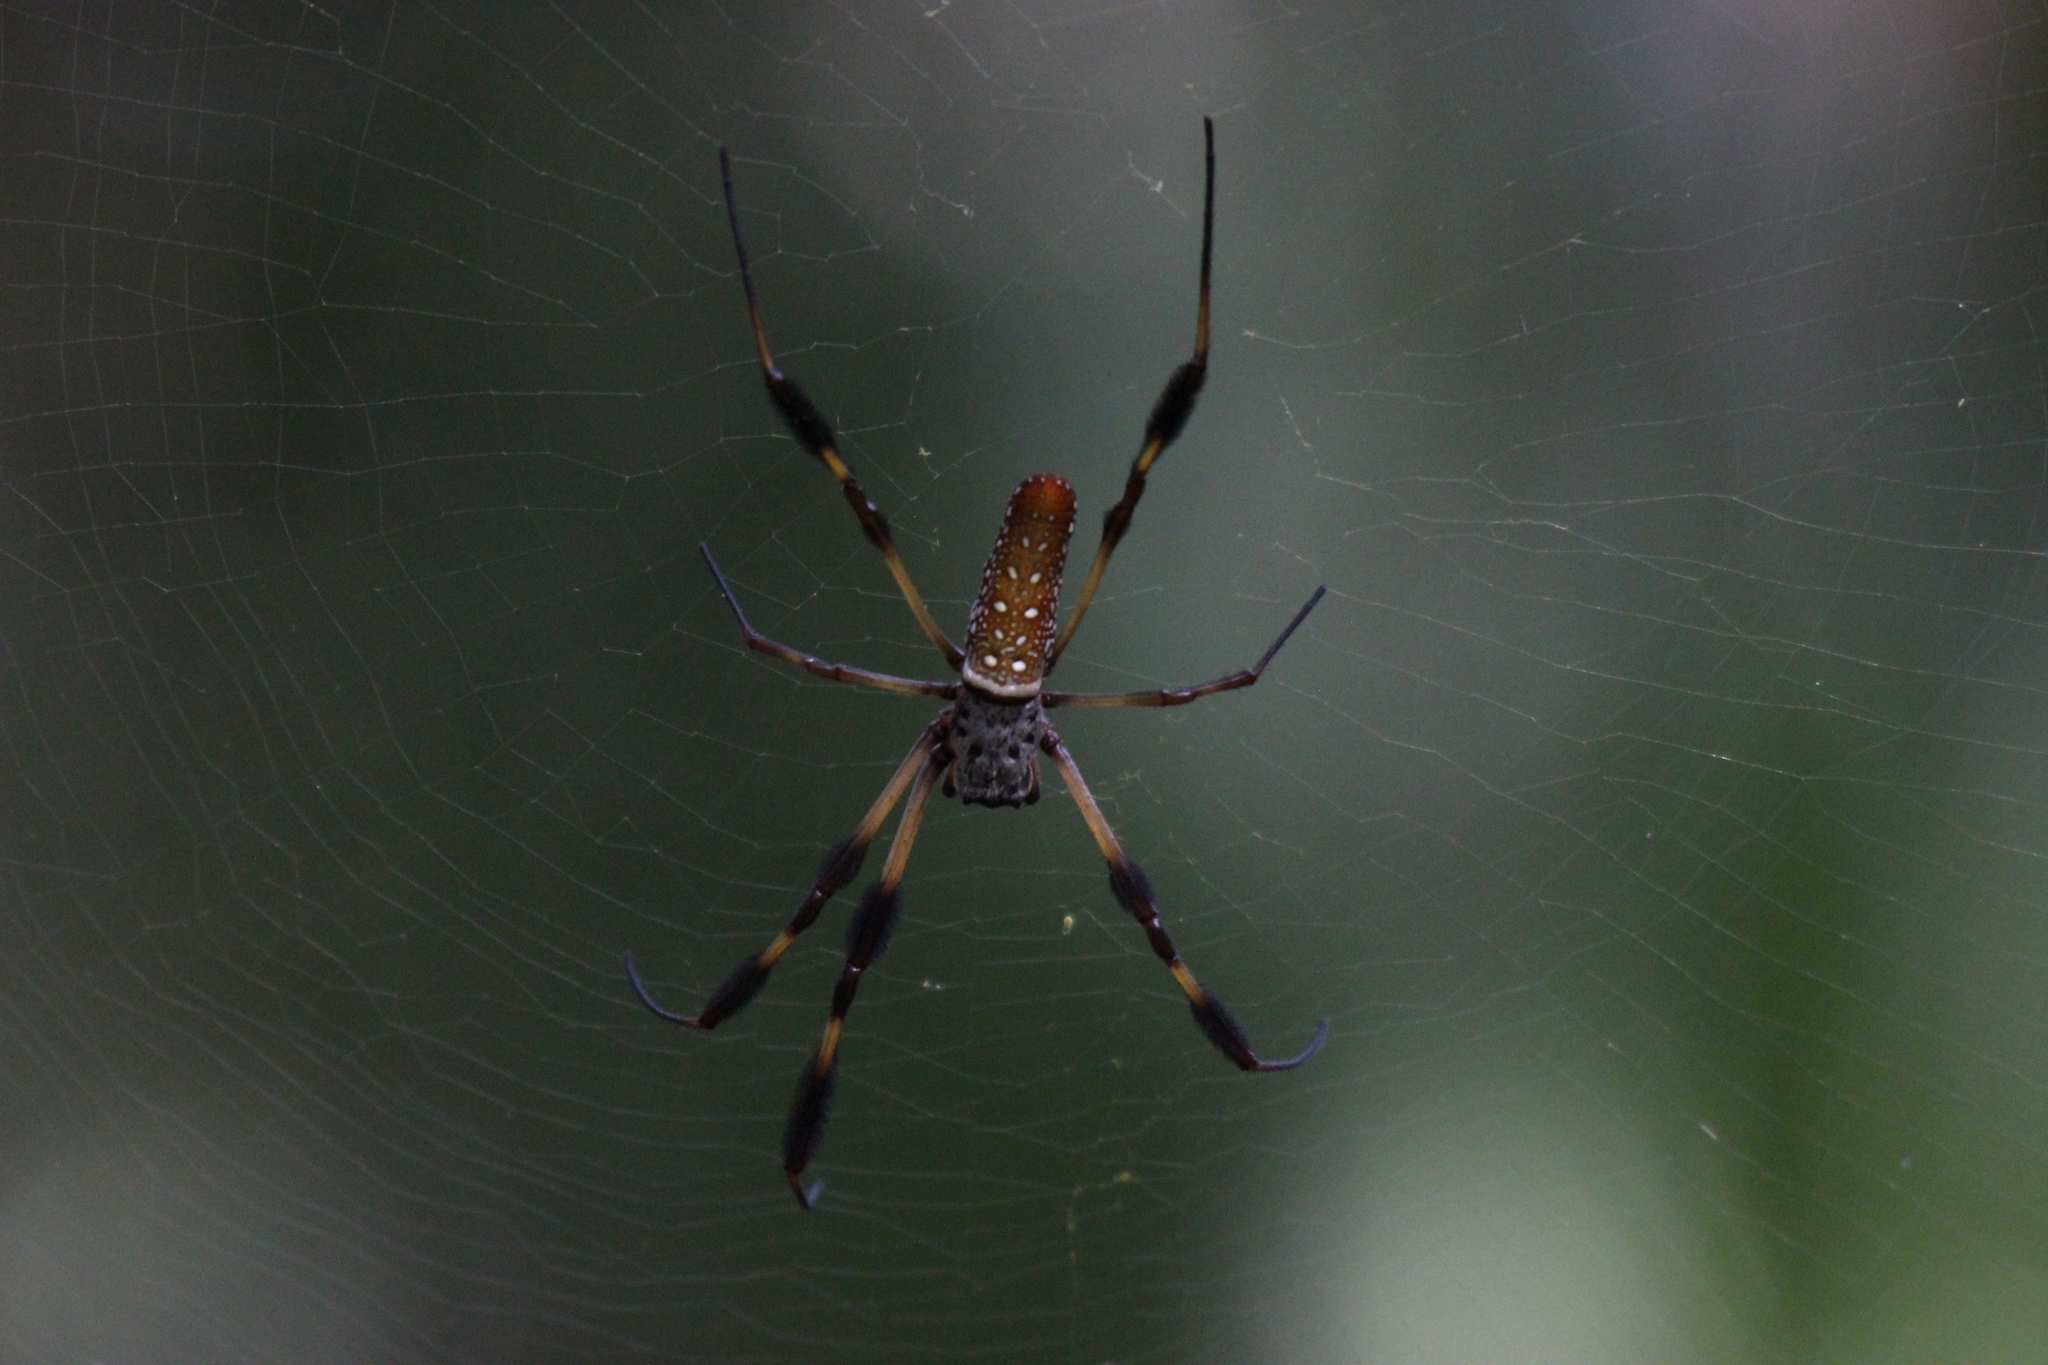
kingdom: Animalia
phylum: Arthropoda
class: Arachnida
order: Araneae
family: Araneidae
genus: Trichonephila
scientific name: Trichonephila clavipes
